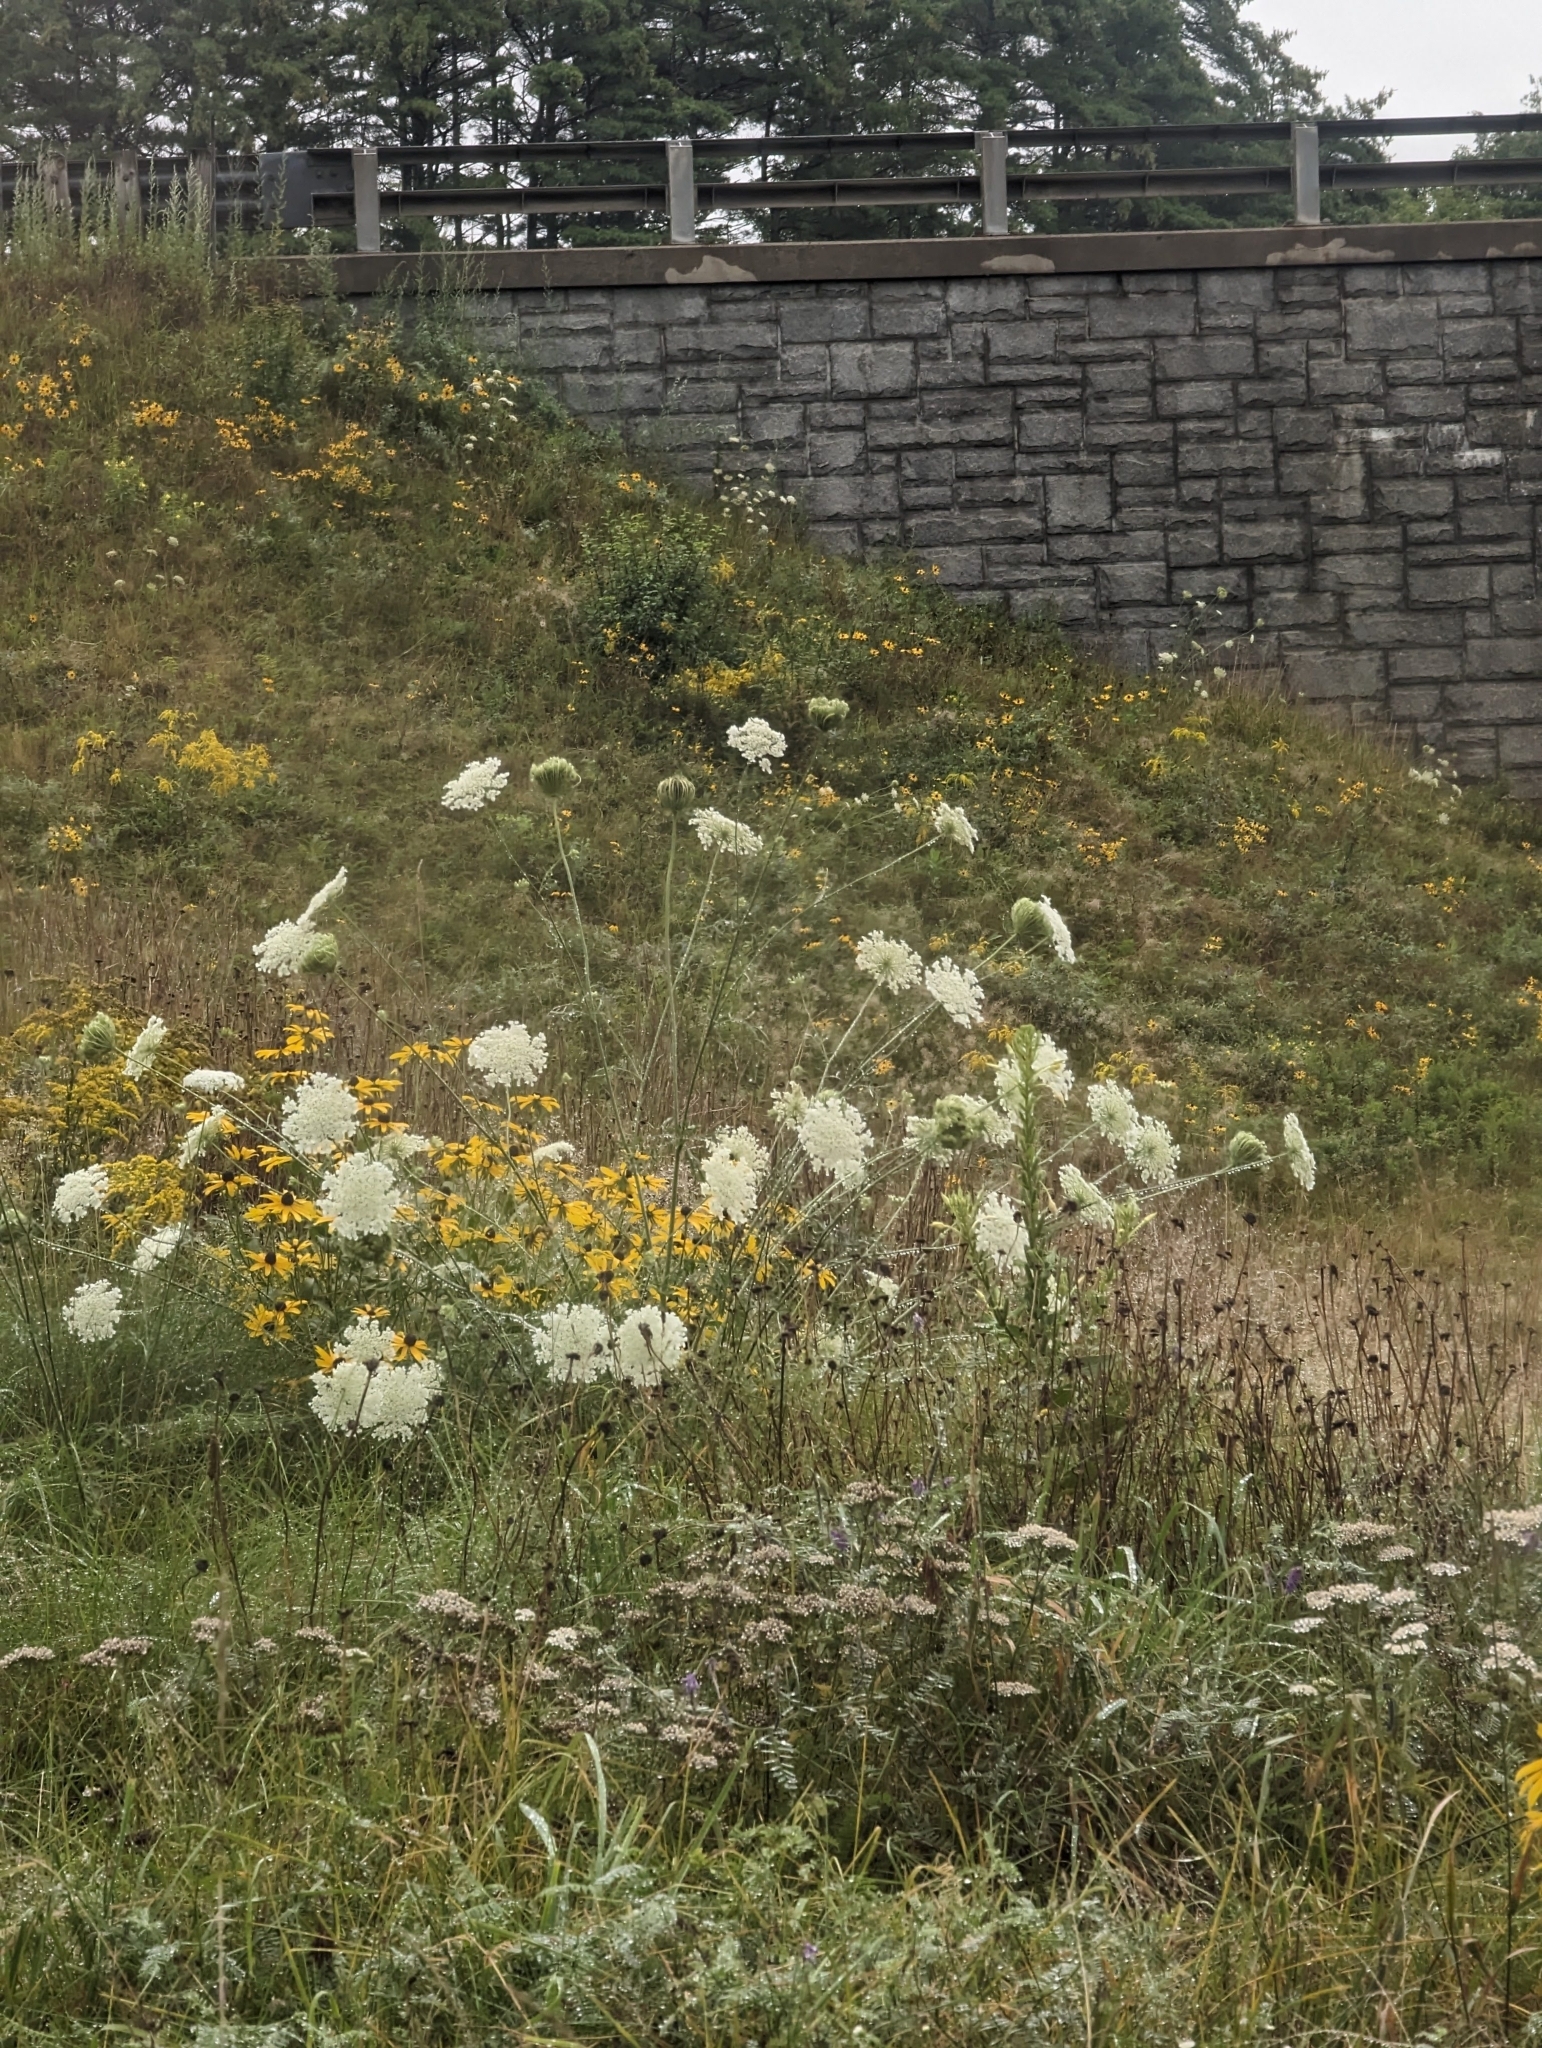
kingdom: Plantae
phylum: Tracheophyta
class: Magnoliopsida
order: Apiales
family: Apiaceae
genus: Daucus
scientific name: Daucus carota
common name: Wild carrot
